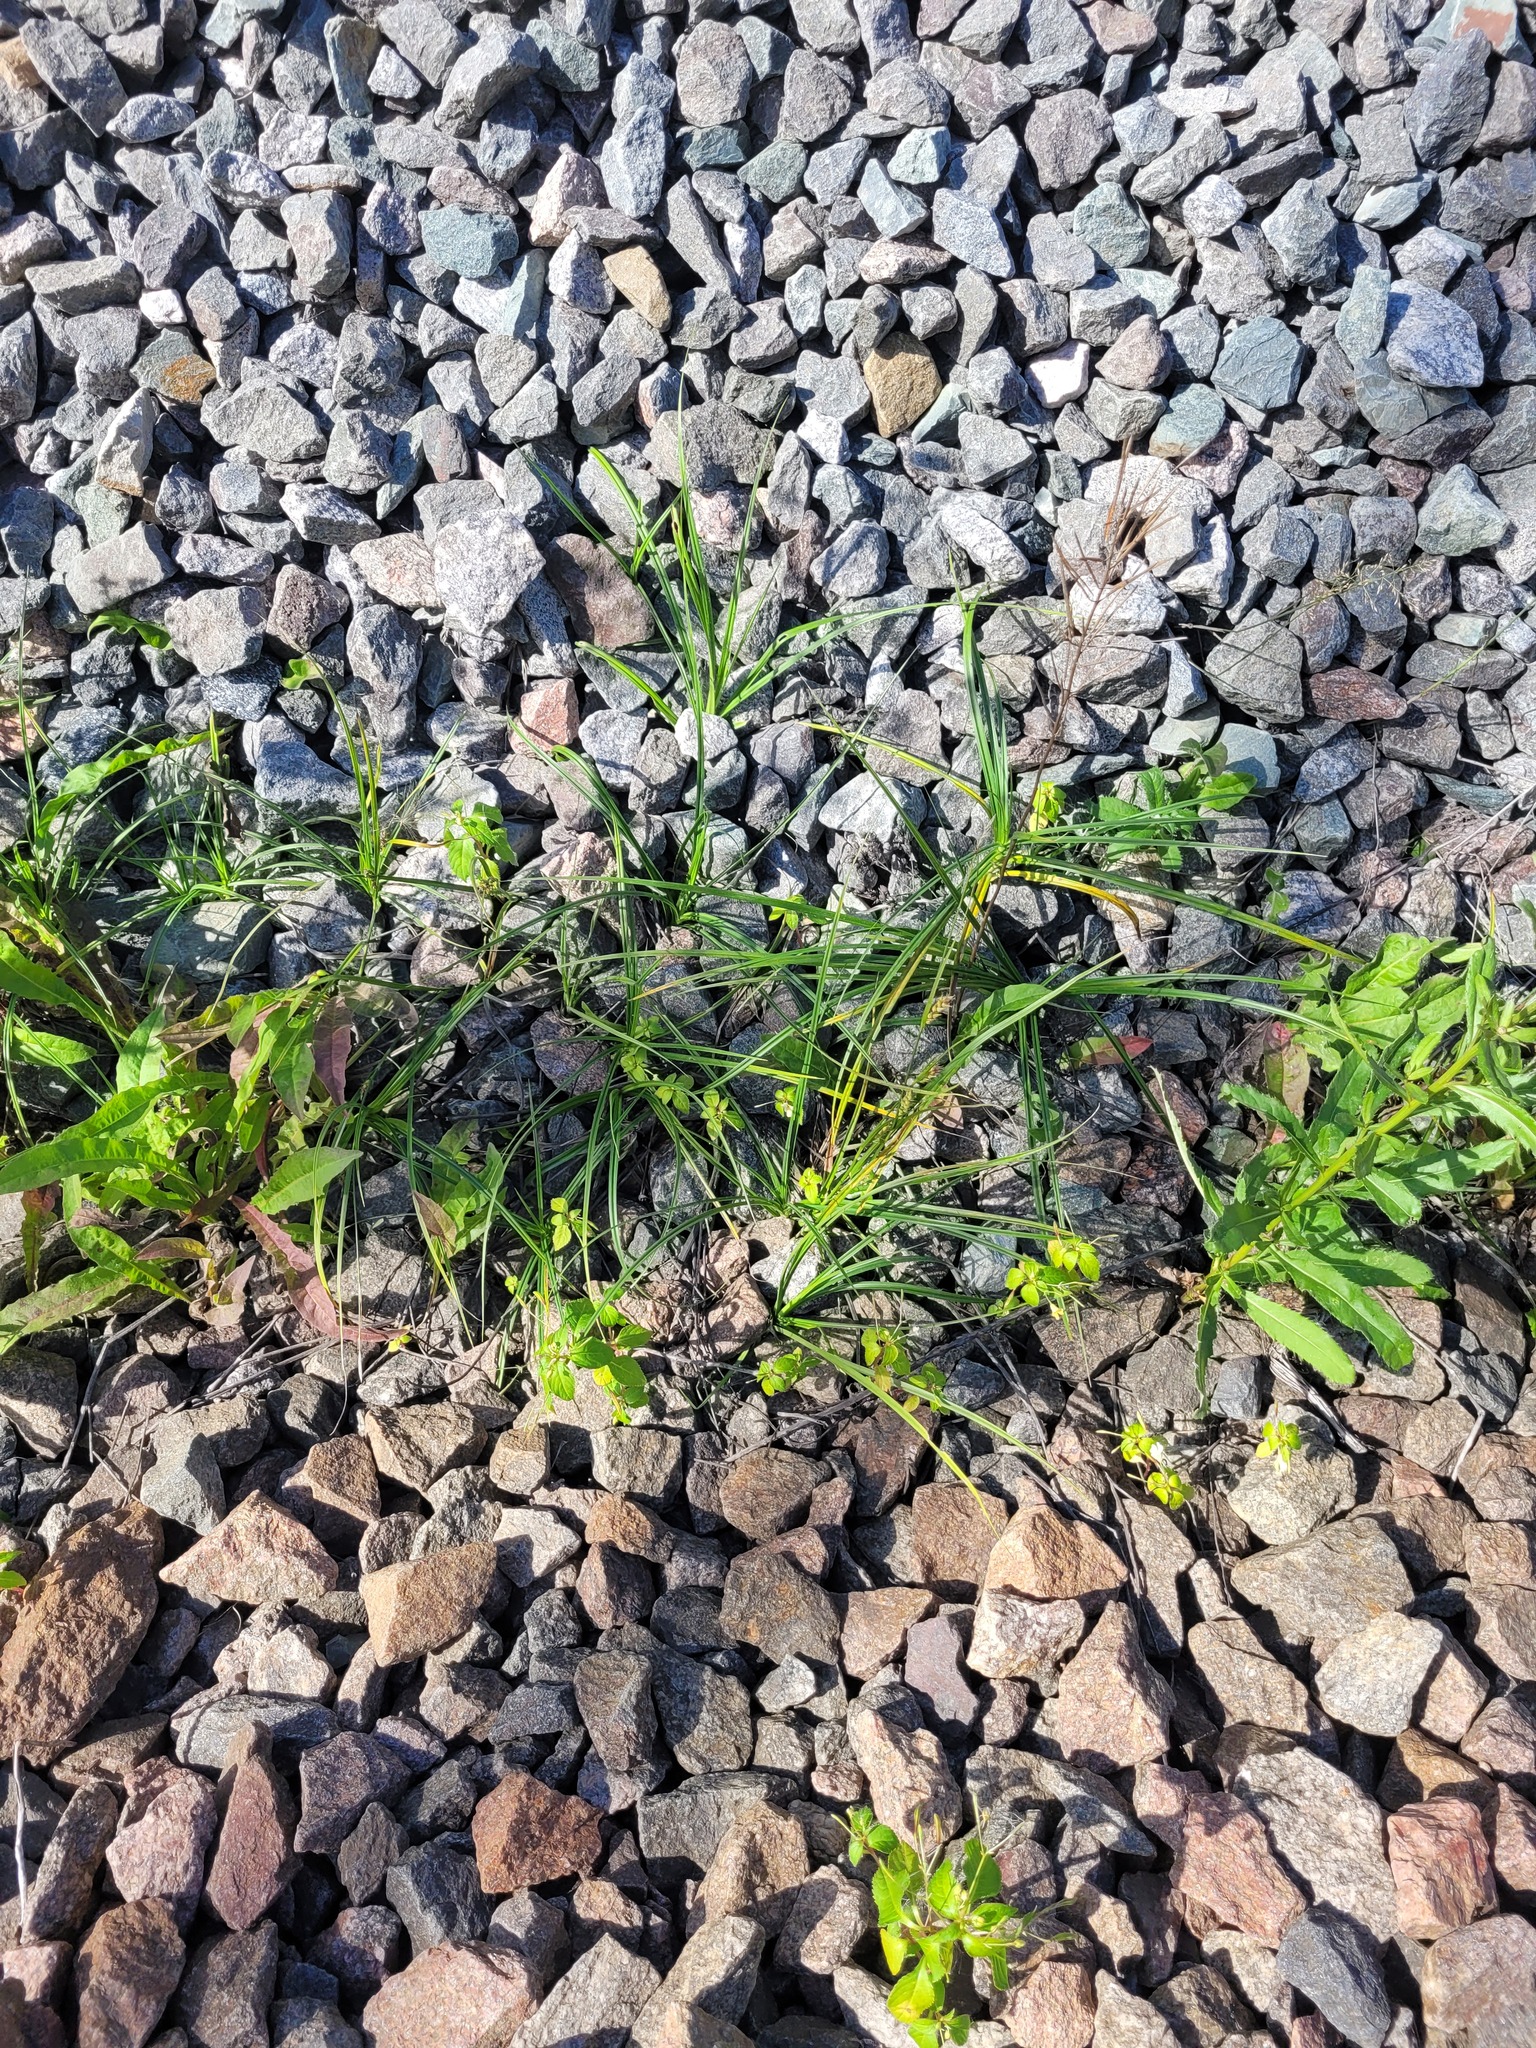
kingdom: Plantae
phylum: Tracheophyta
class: Liliopsida
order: Poales
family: Cyperaceae
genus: Carex
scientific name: Carex hirta
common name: Hairy sedge
